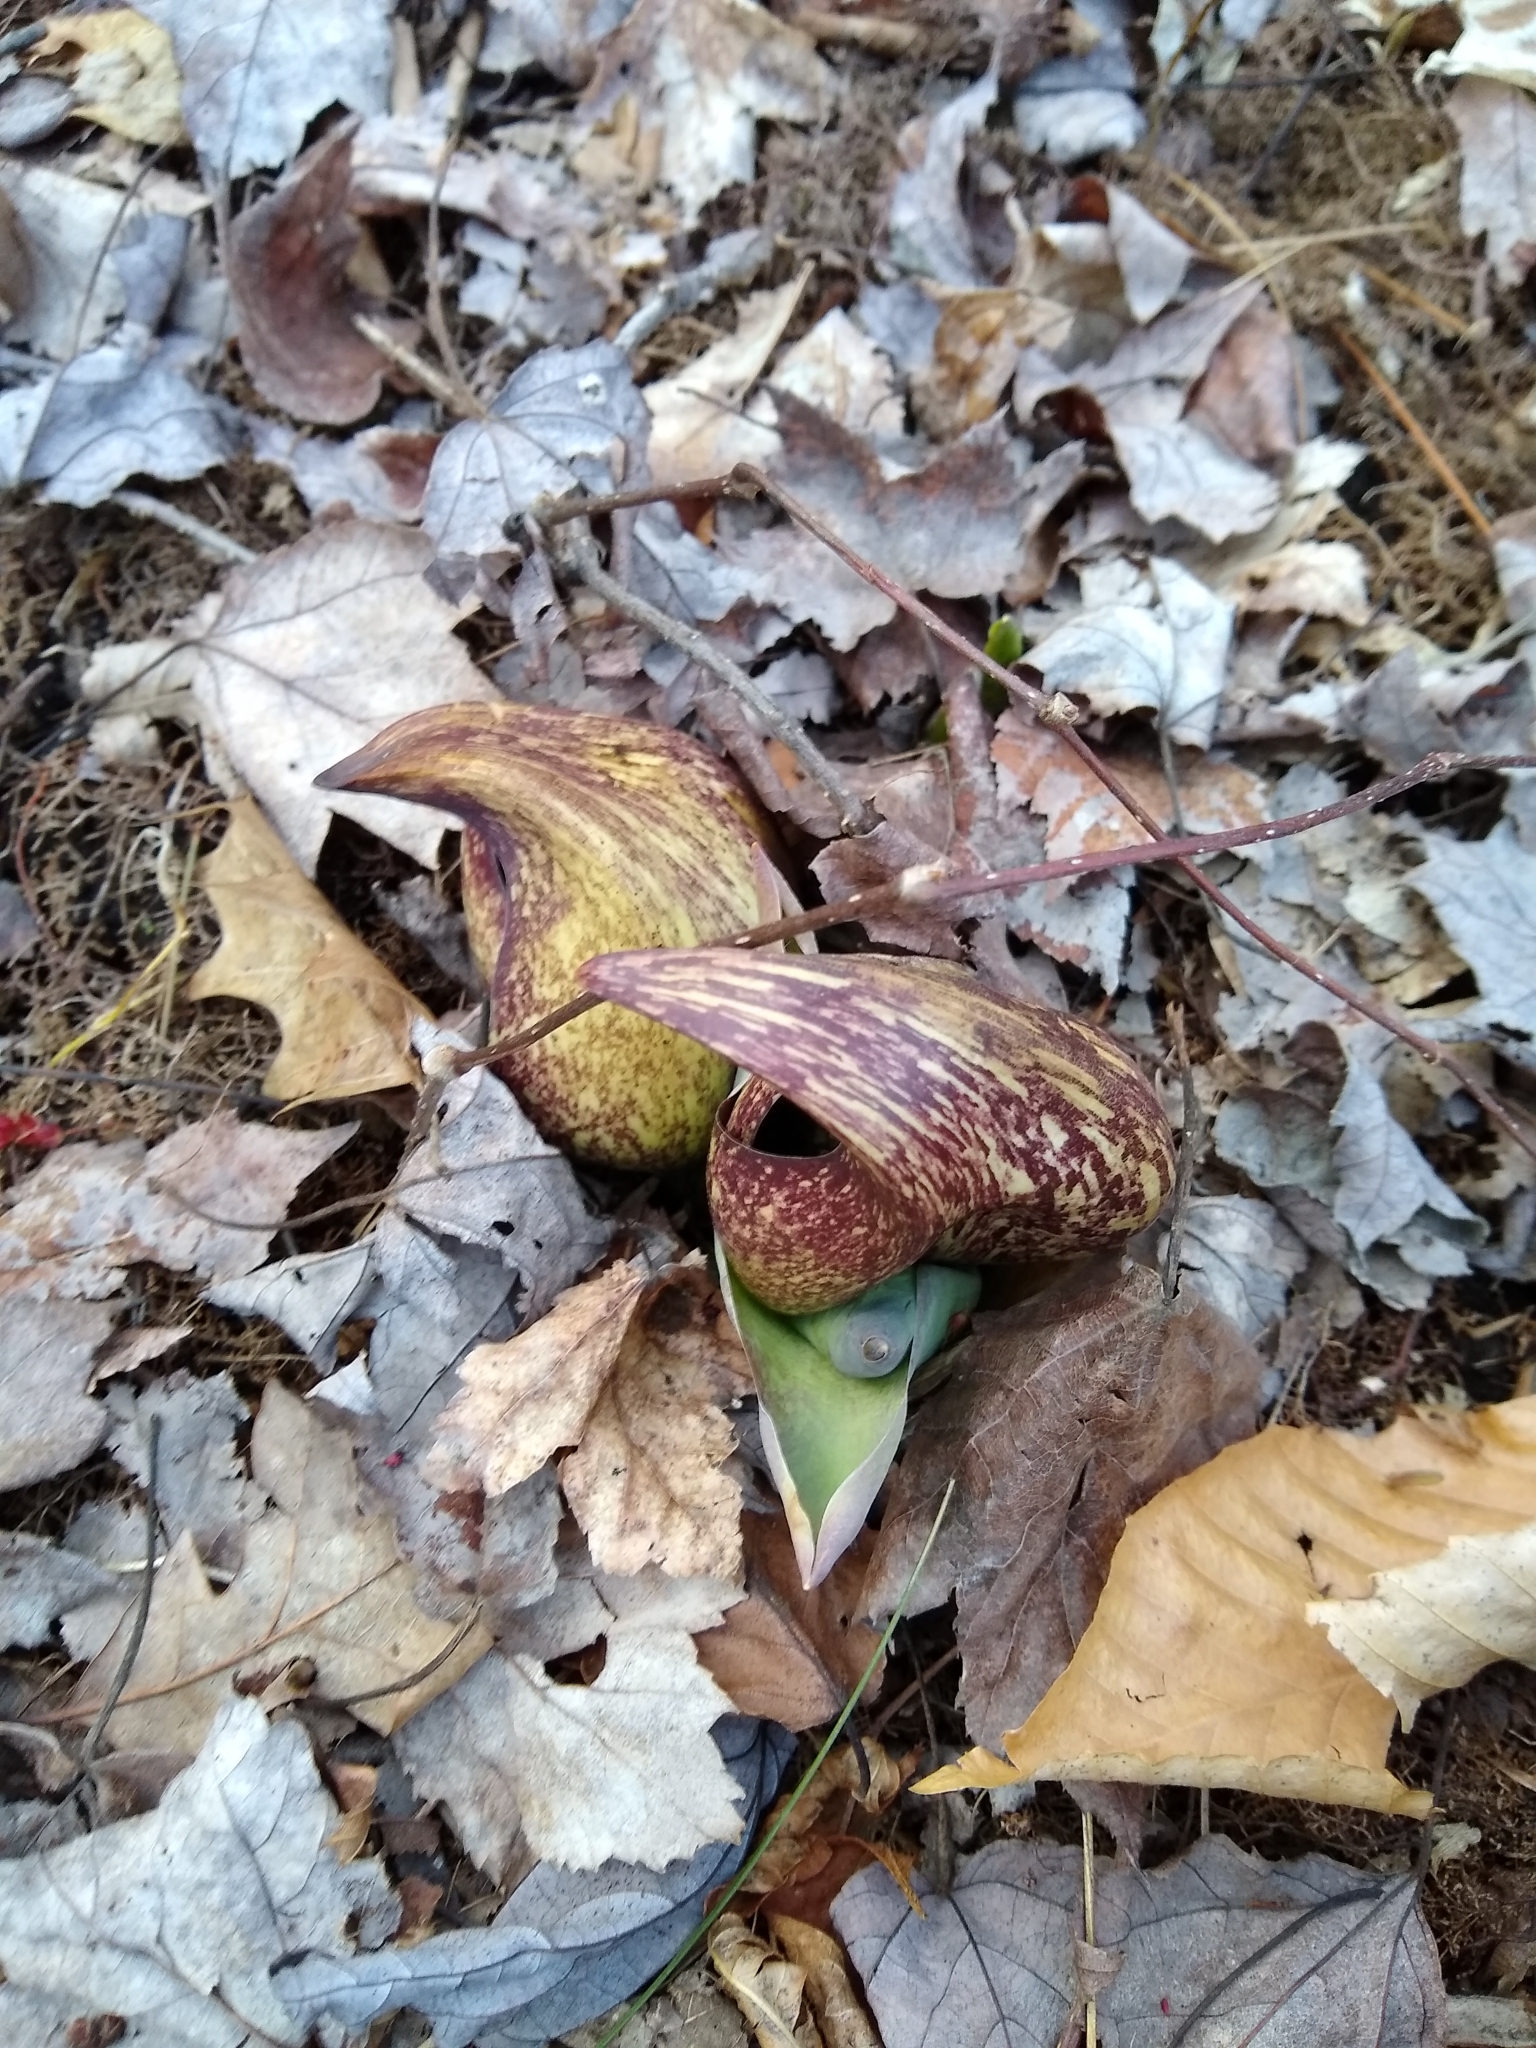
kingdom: Plantae
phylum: Tracheophyta
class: Liliopsida
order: Alismatales
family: Araceae
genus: Symplocarpus
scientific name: Symplocarpus foetidus
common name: Eastern skunk cabbage
